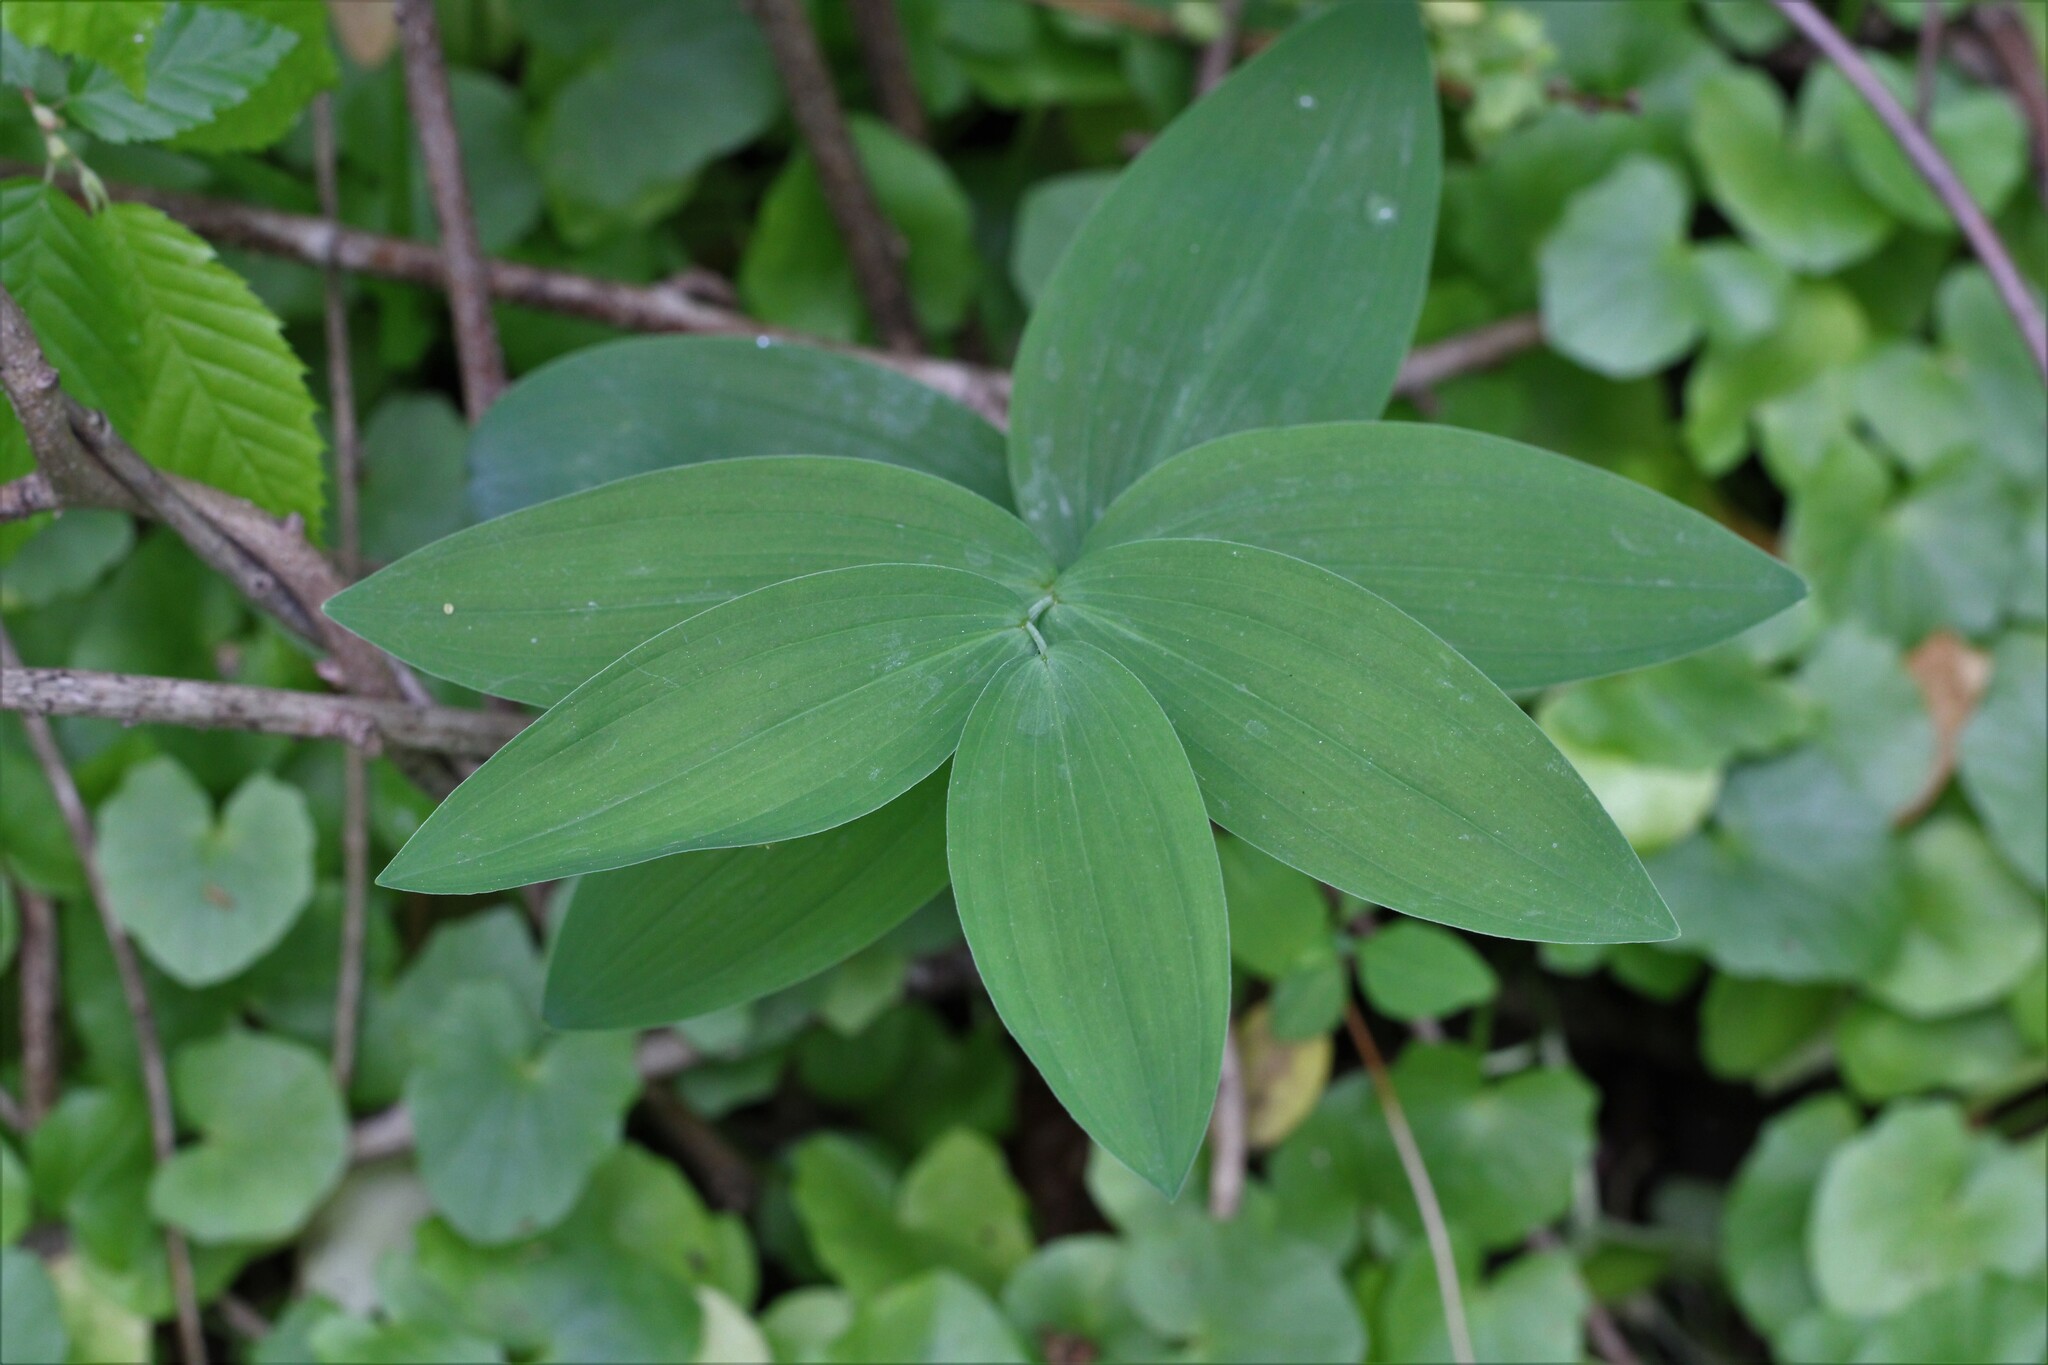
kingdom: Plantae
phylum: Tracheophyta
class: Liliopsida
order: Asparagales
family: Asparagaceae
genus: Polygonatum
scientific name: Polygonatum biflorum
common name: American solomon's-seal
